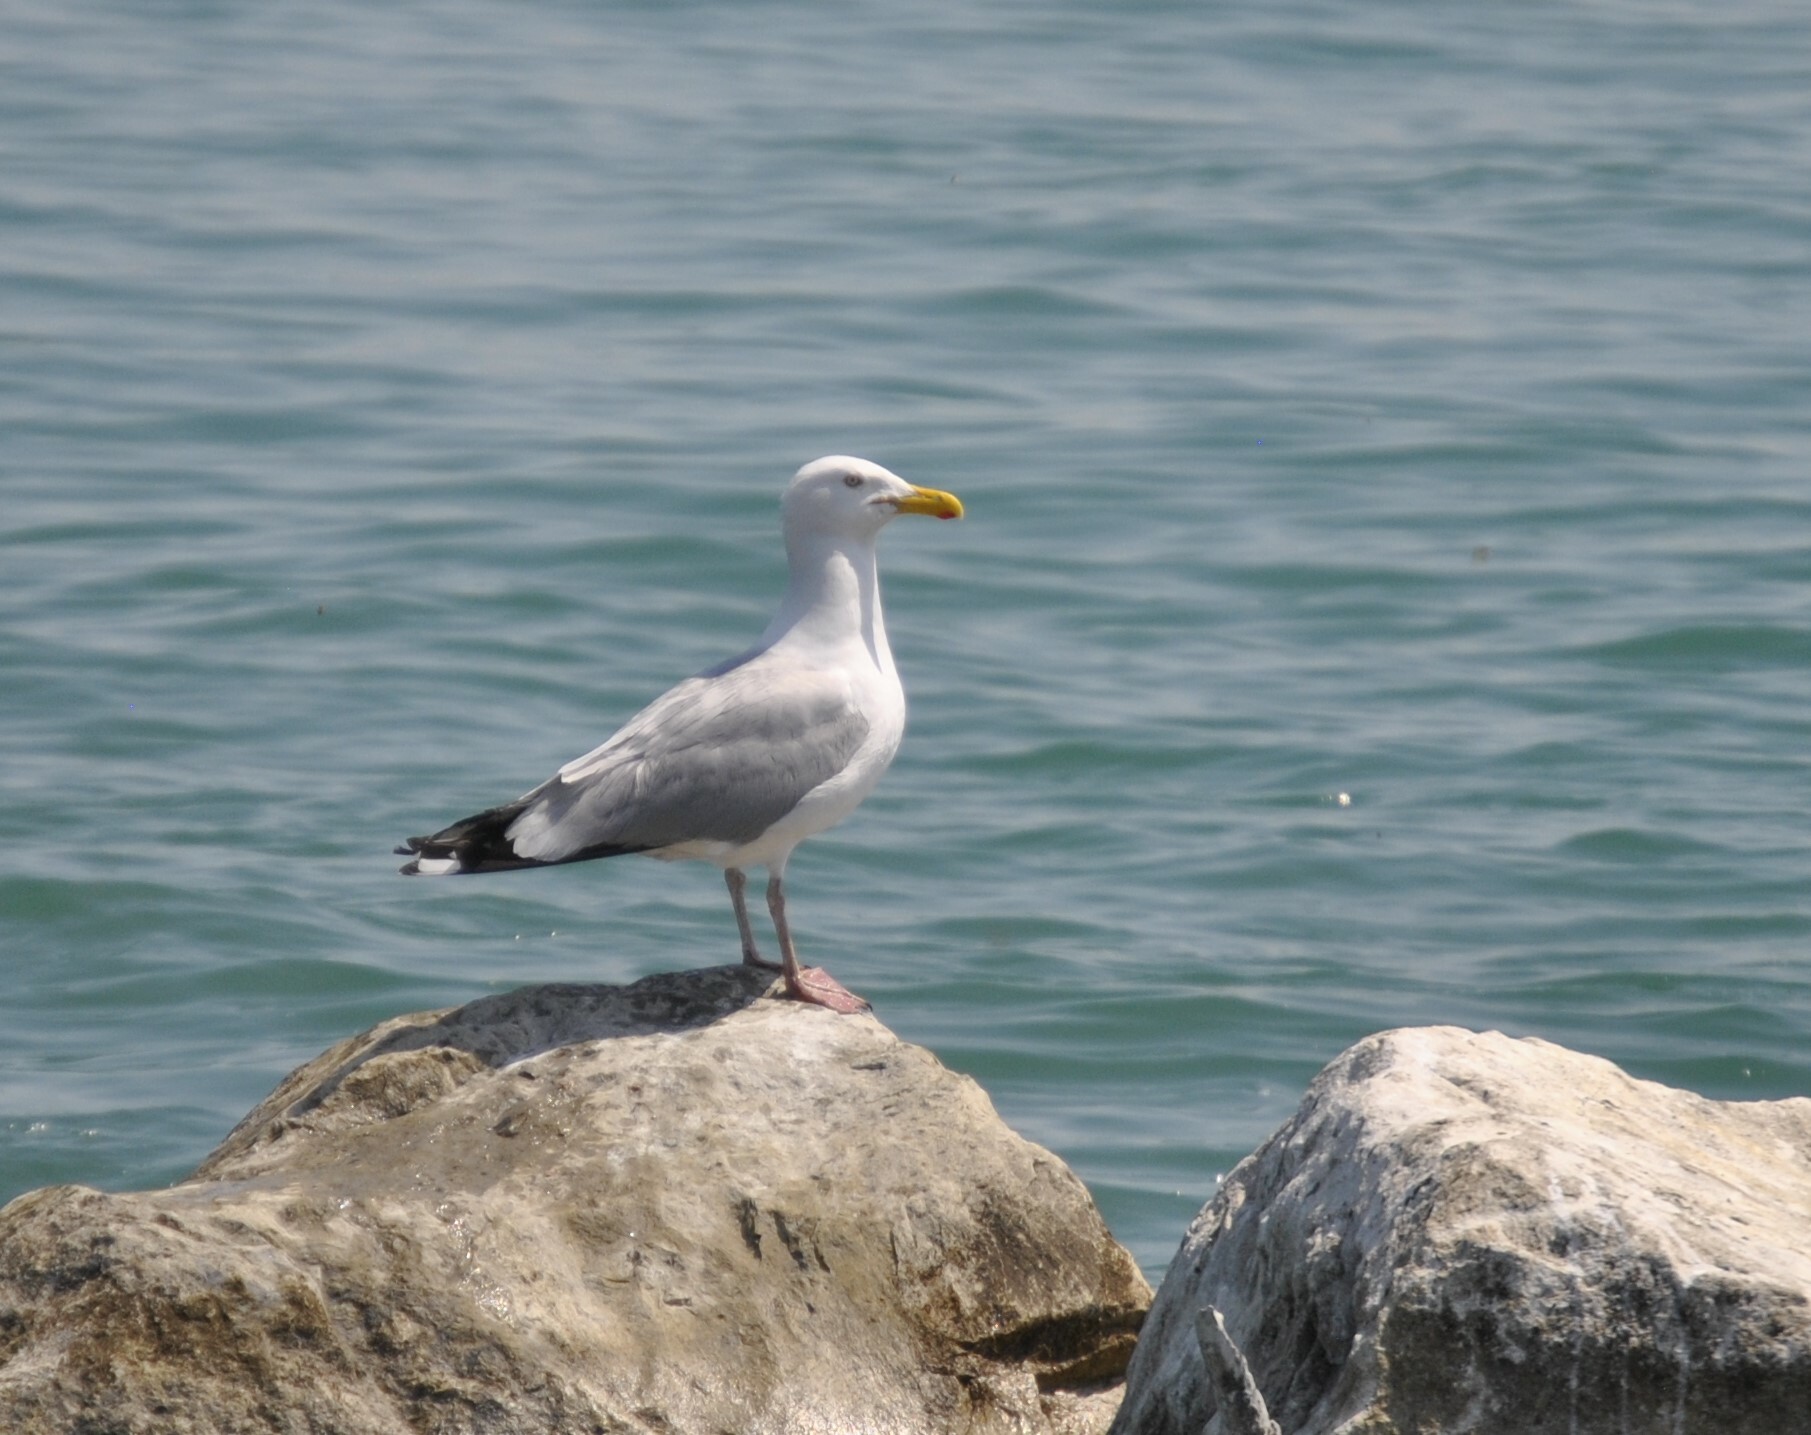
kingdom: Animalia
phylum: Chordata
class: Aves
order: Charadriiformes
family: Laridae
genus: Larus
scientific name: Larus argentatus
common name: Herring gull
